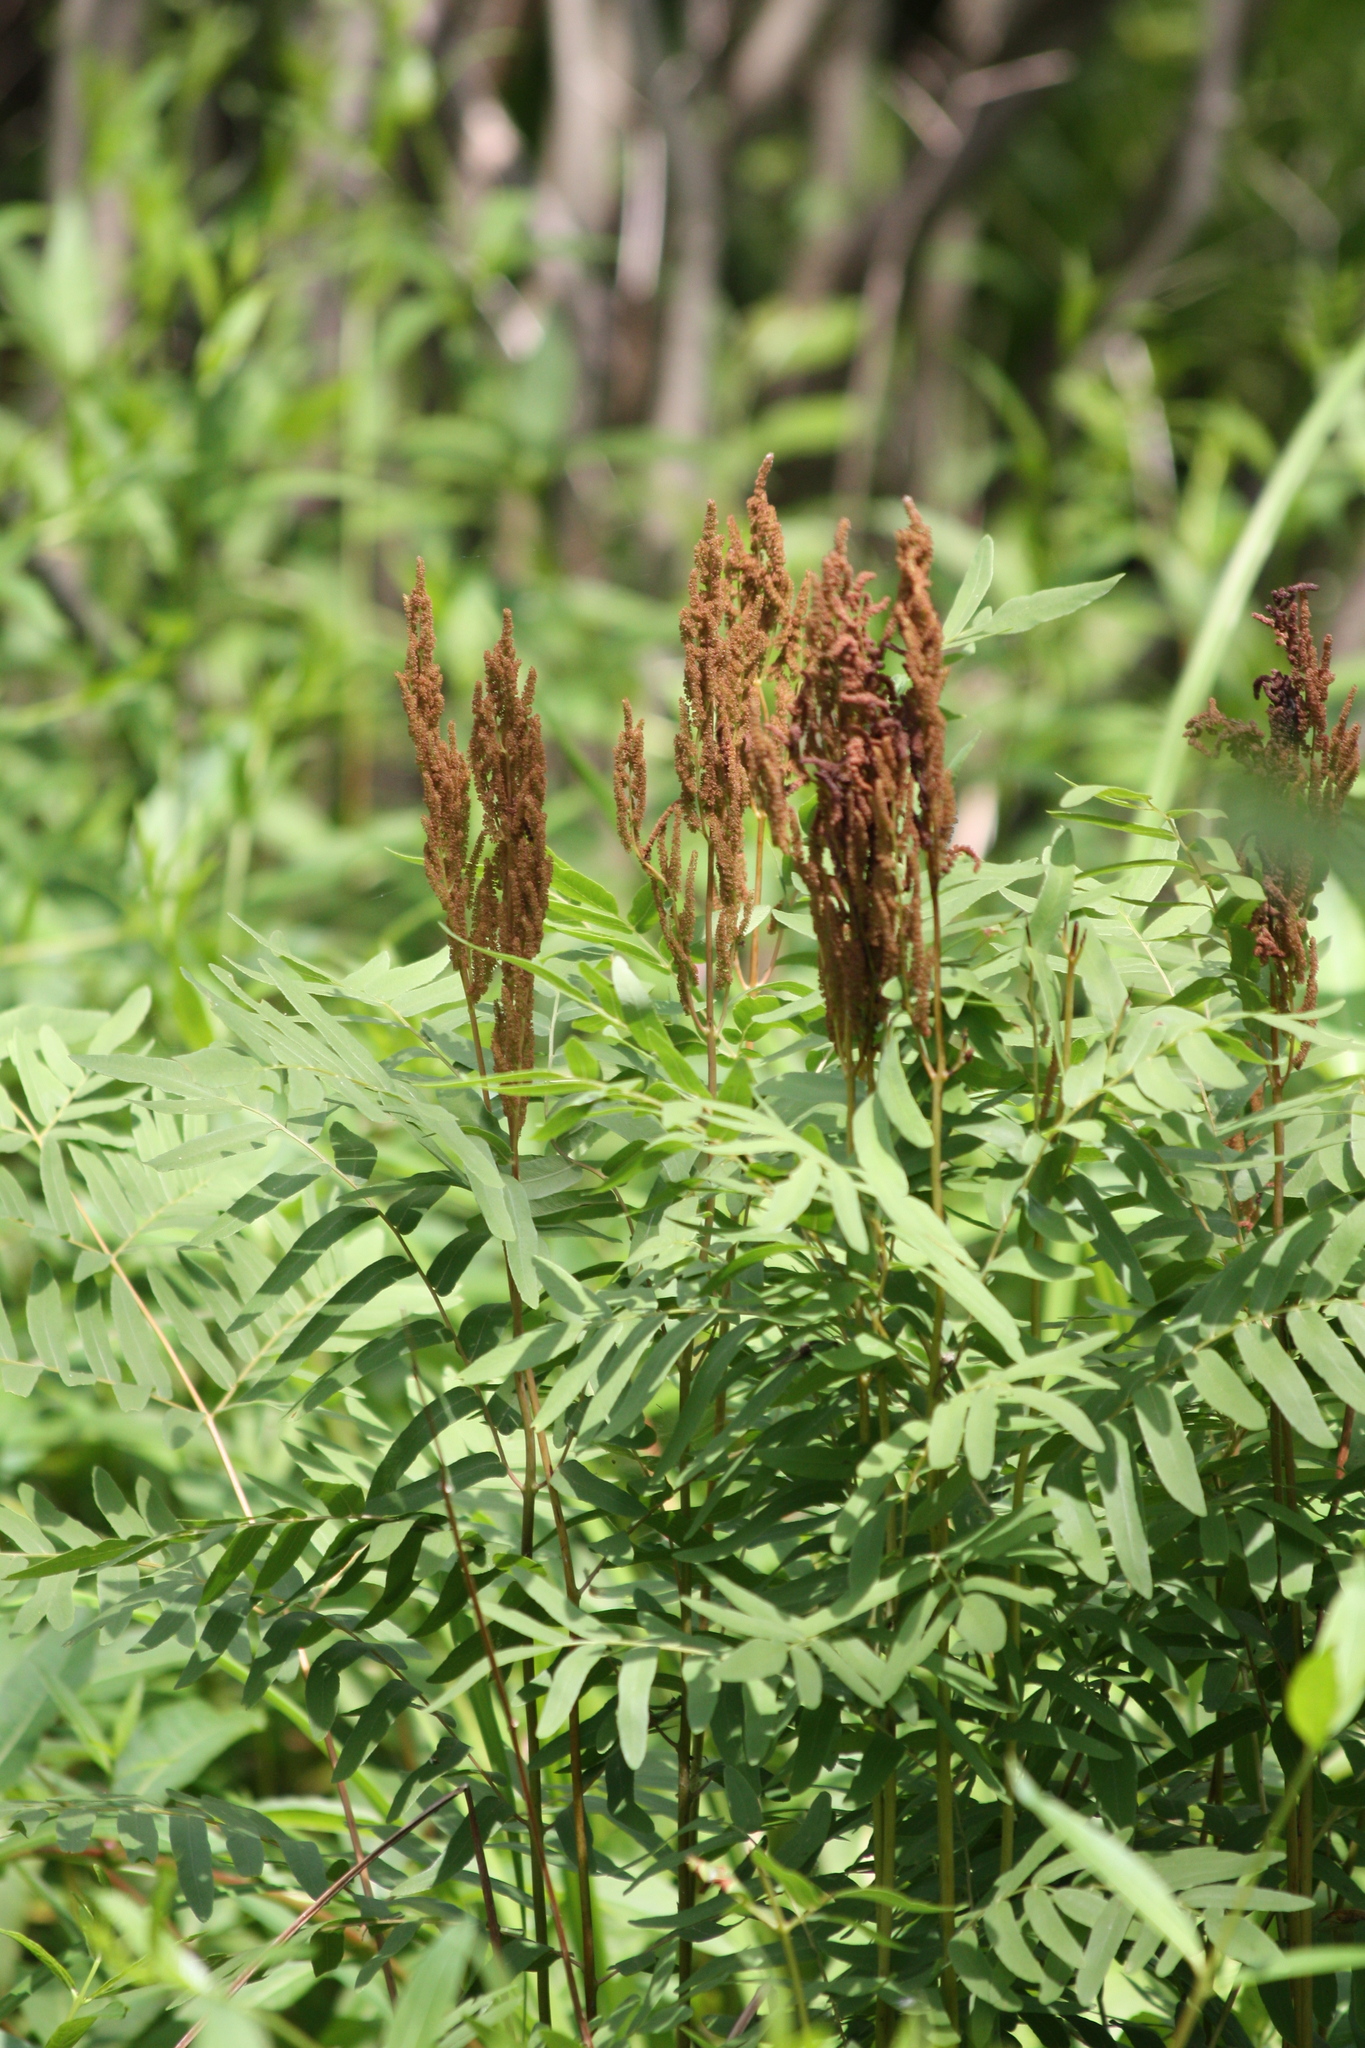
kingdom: Plantae
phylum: Tracheophyta
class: Polypodiopsida
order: Osmundales
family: Osmundaceae
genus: Osmunda
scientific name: Osmunda spectabilis
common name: American royal fern
